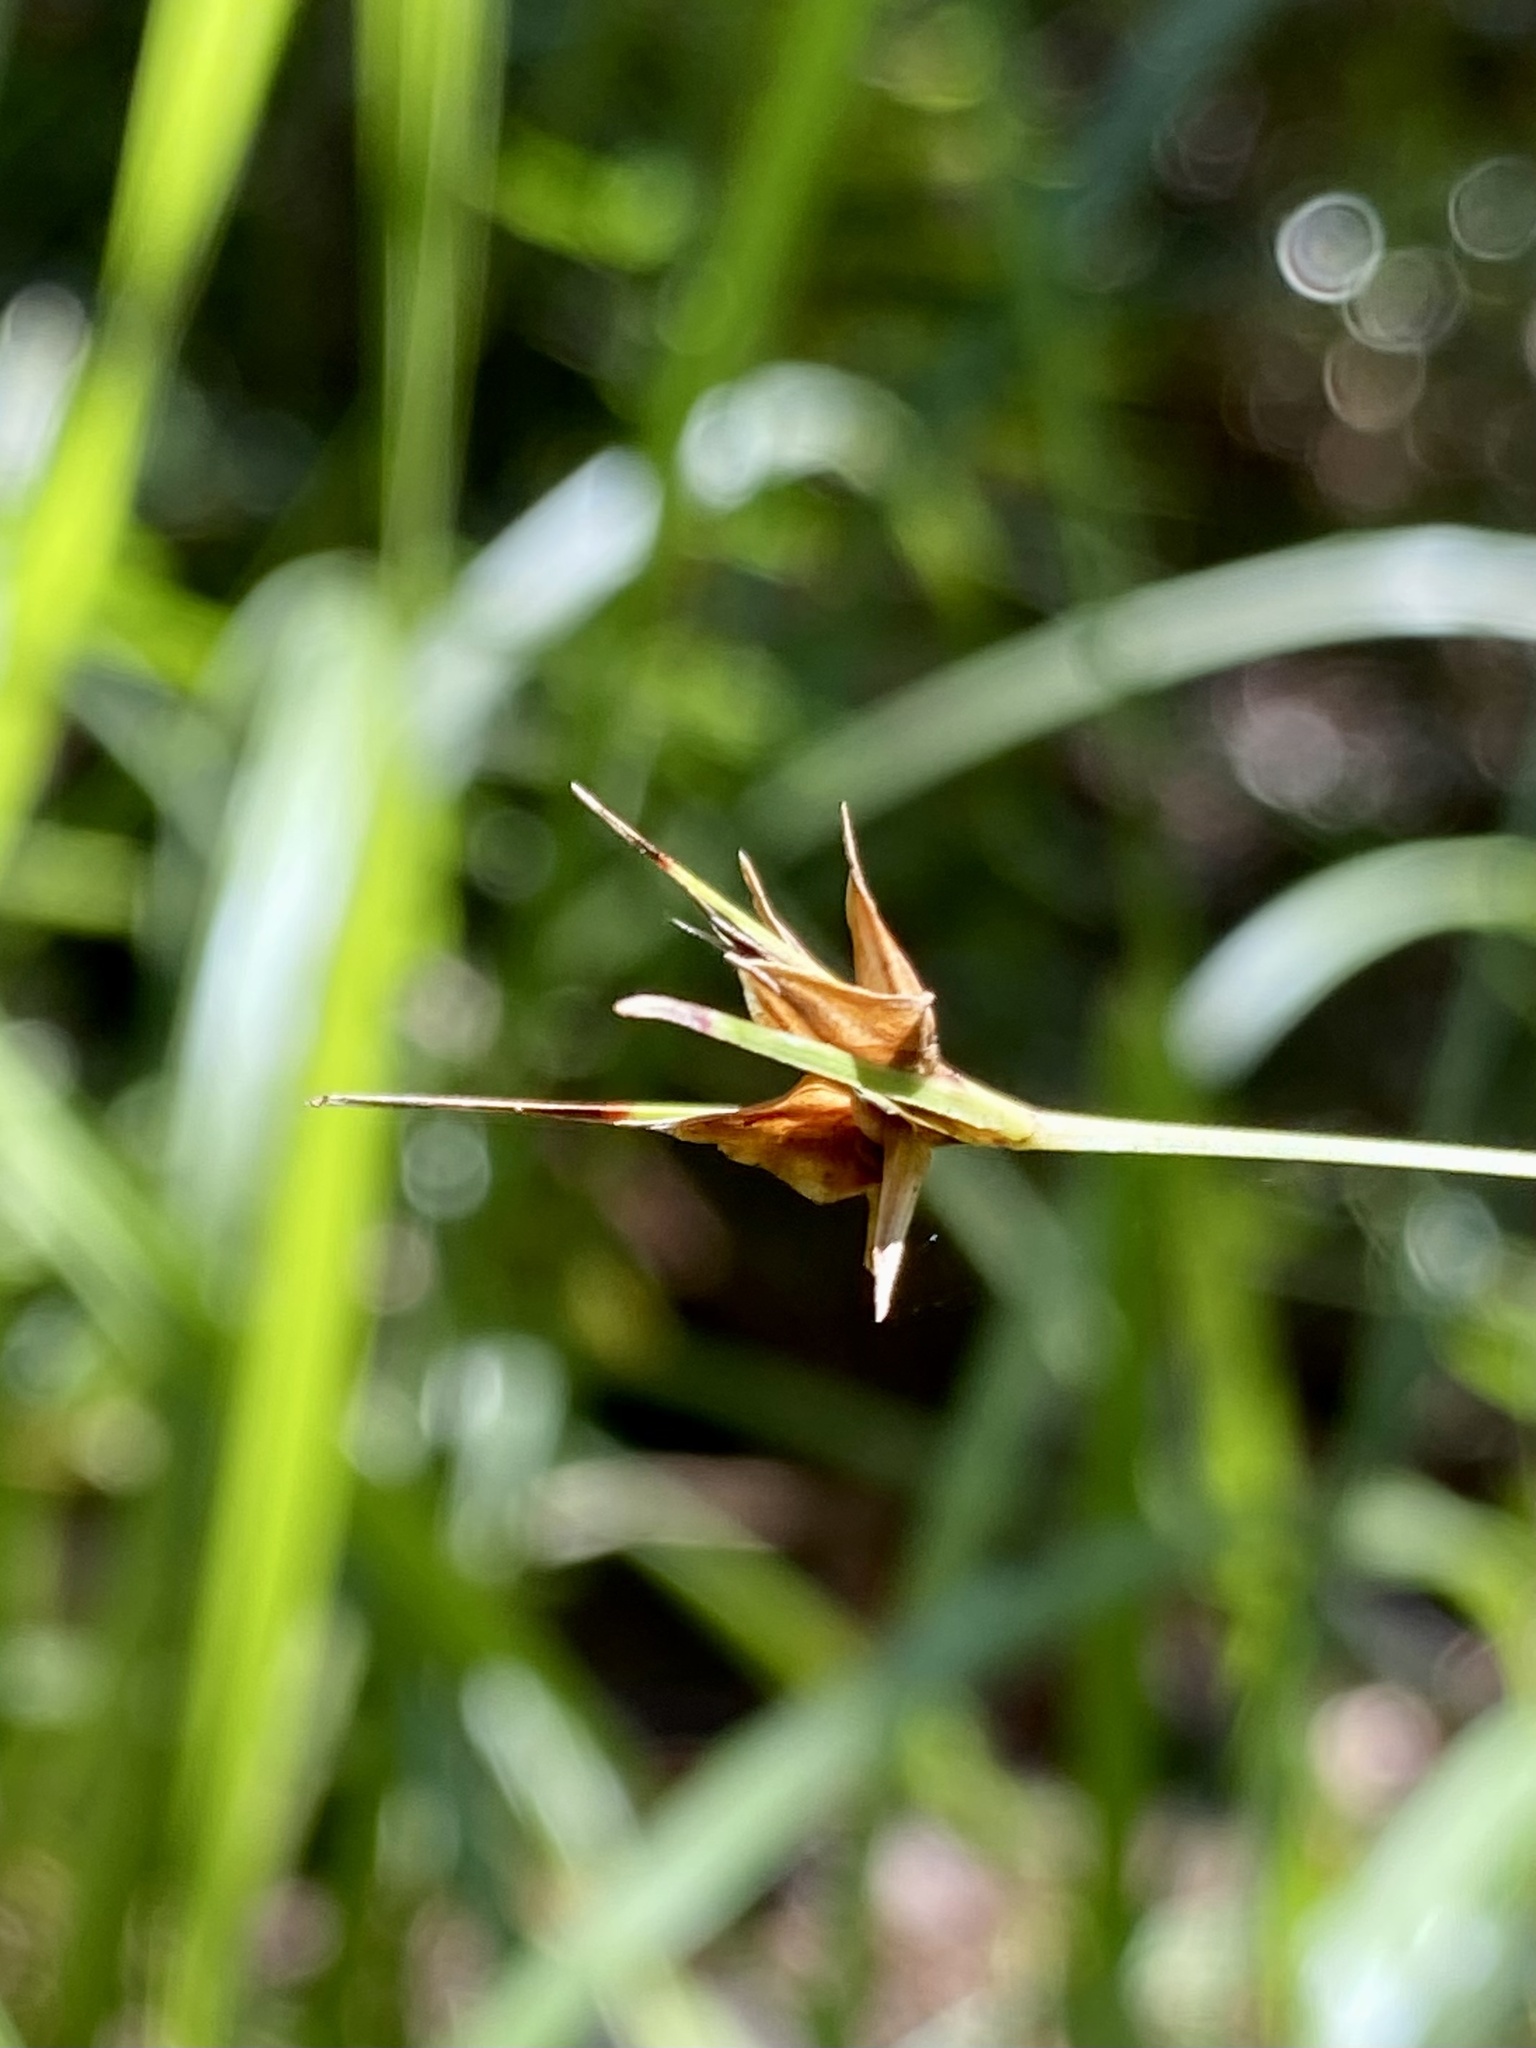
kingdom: Plantae
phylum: Tracheophyta
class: Liliopsida
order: Poales
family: Cyperaceae
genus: Scleria
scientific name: Scleria triglomerata
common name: Whip nutrush
